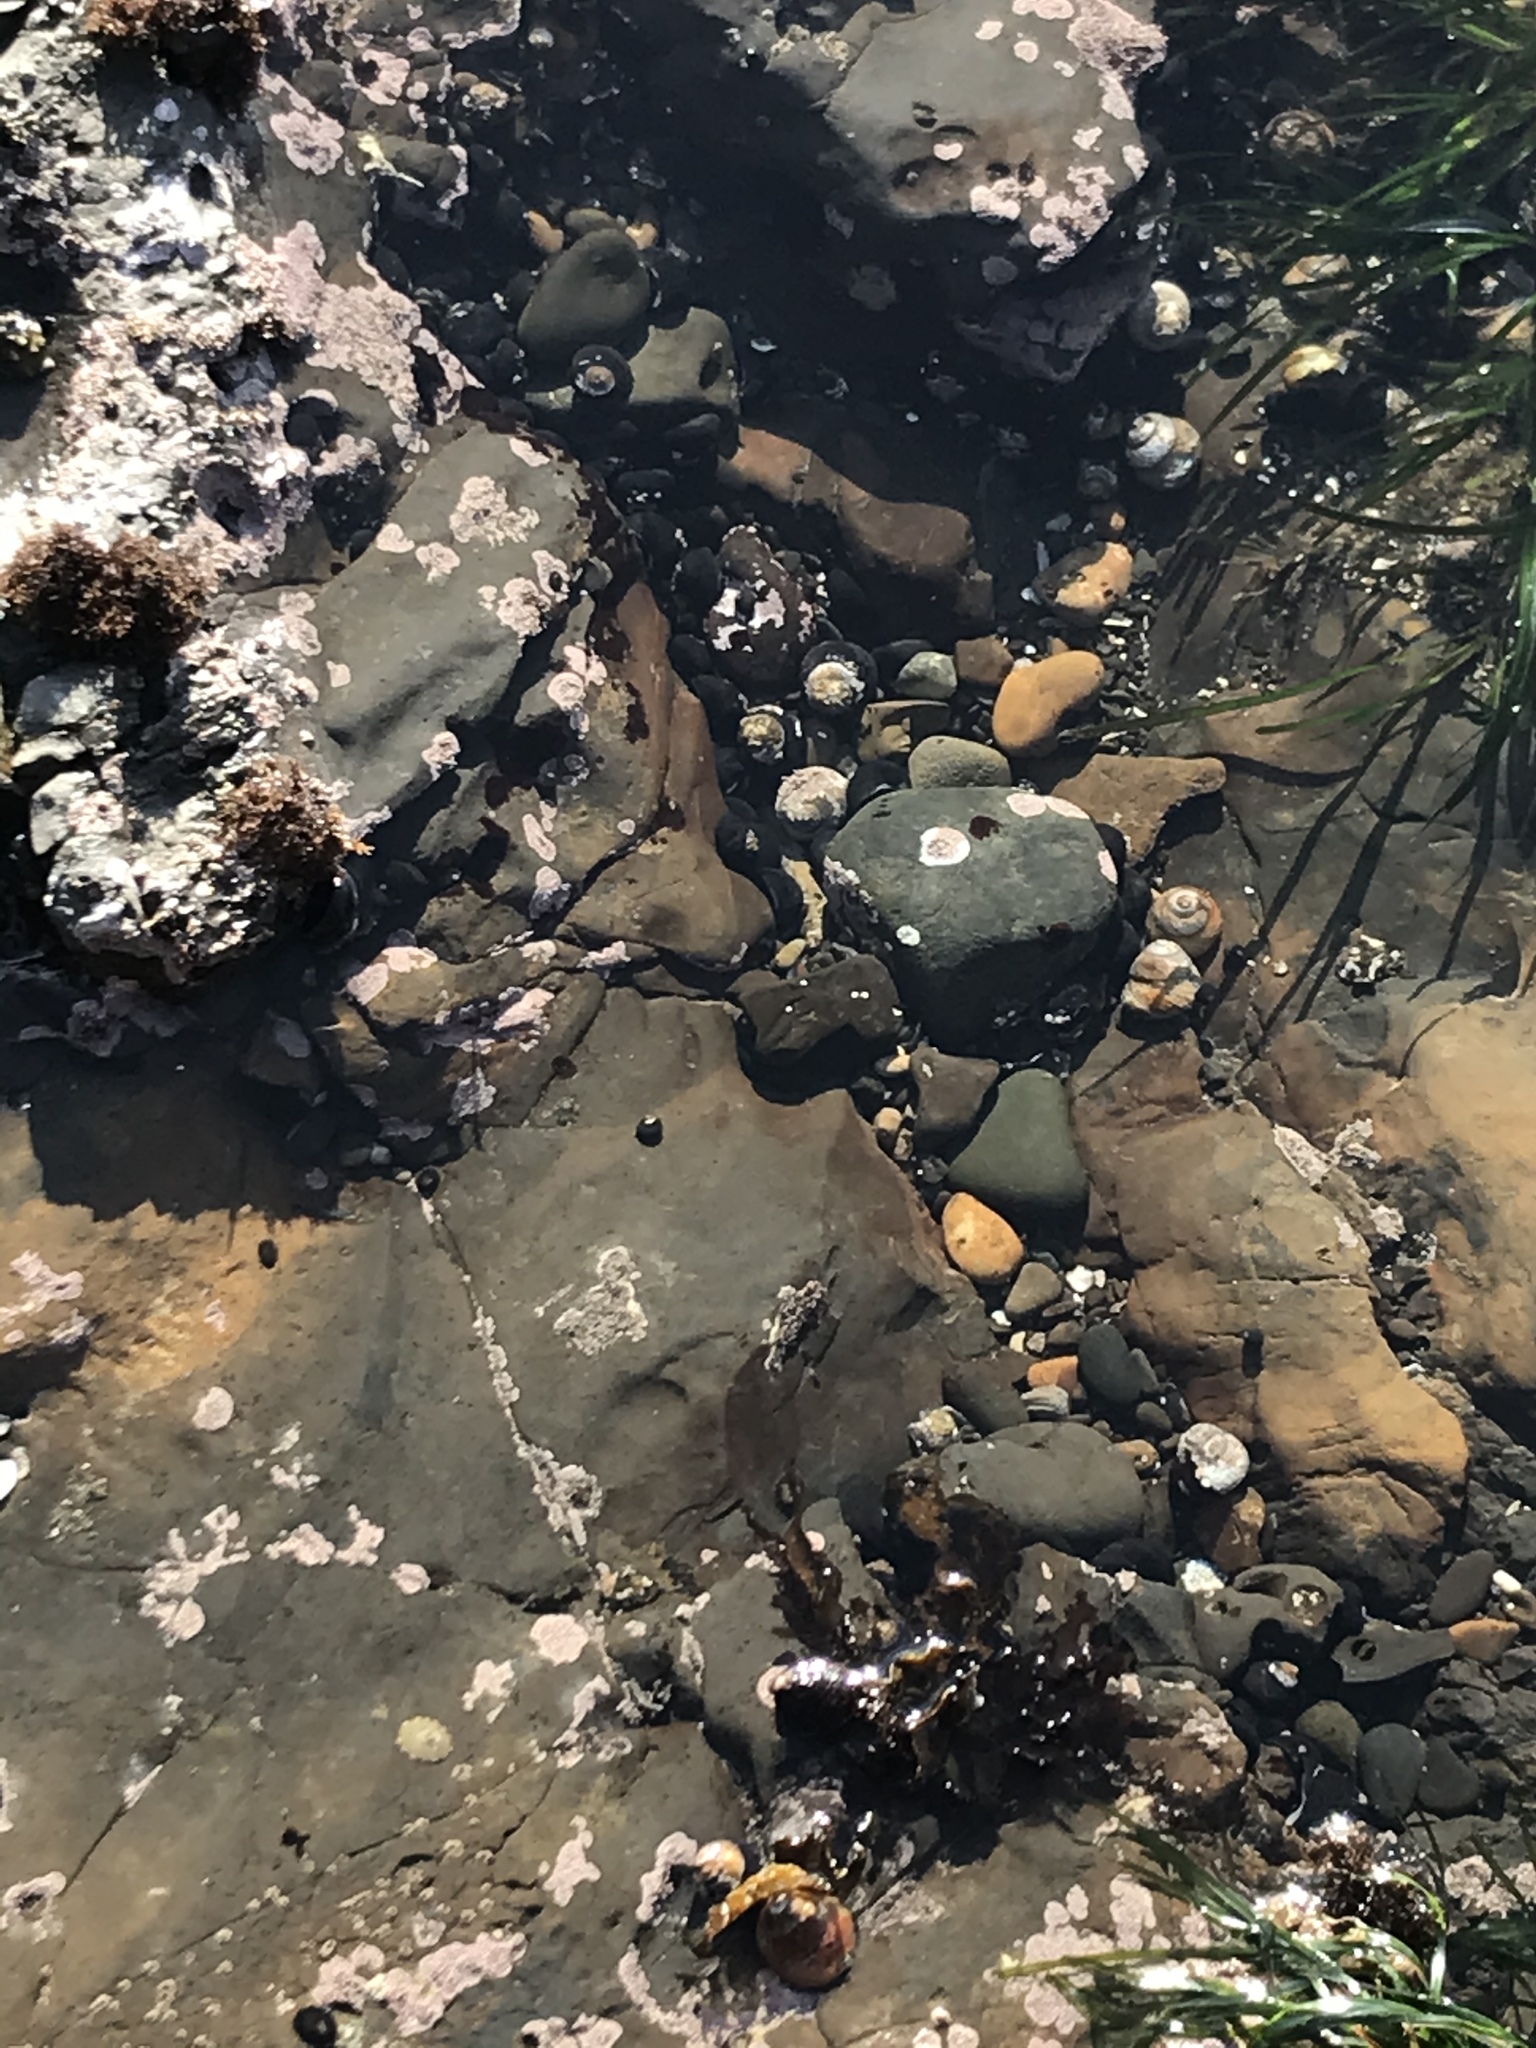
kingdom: Animalia
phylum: Mollusca
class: Gastropoda
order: Trochida
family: Tegulidae
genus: Tegula
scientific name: Tegula funebralis
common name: Black tegula
